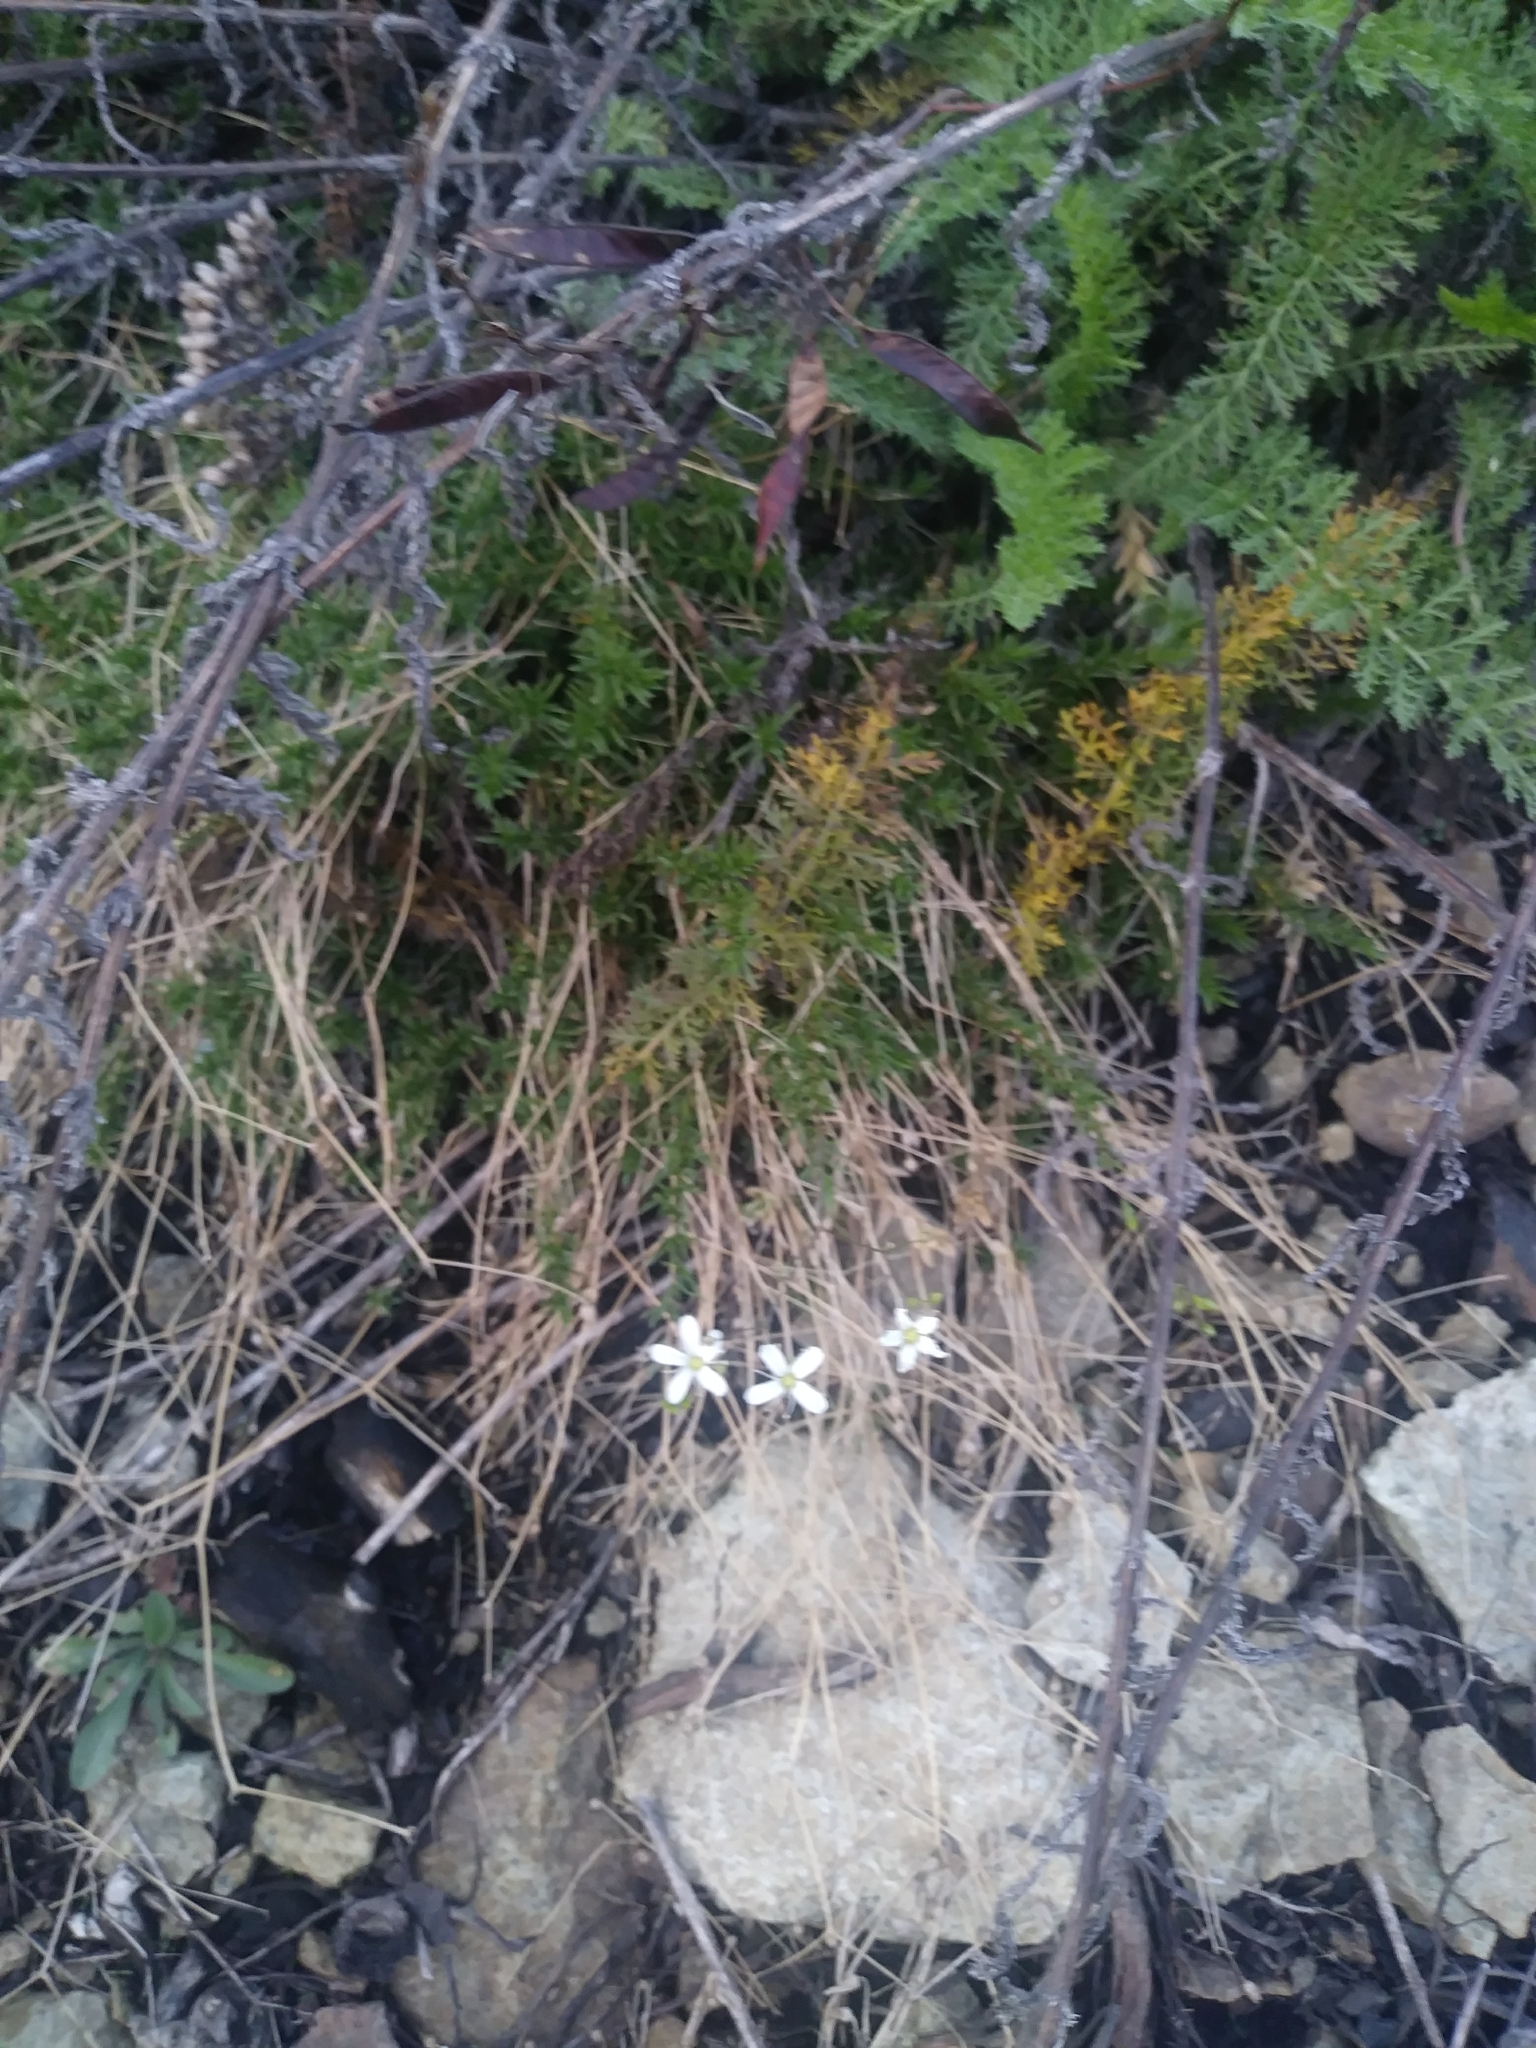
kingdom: Plantae
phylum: Tracheophyta
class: Magnoliopsida
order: Caryophyllales
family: Caryophyllaceae
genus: Sabulina
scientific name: Sabulina michauxii
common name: Michaux's stitchwort
